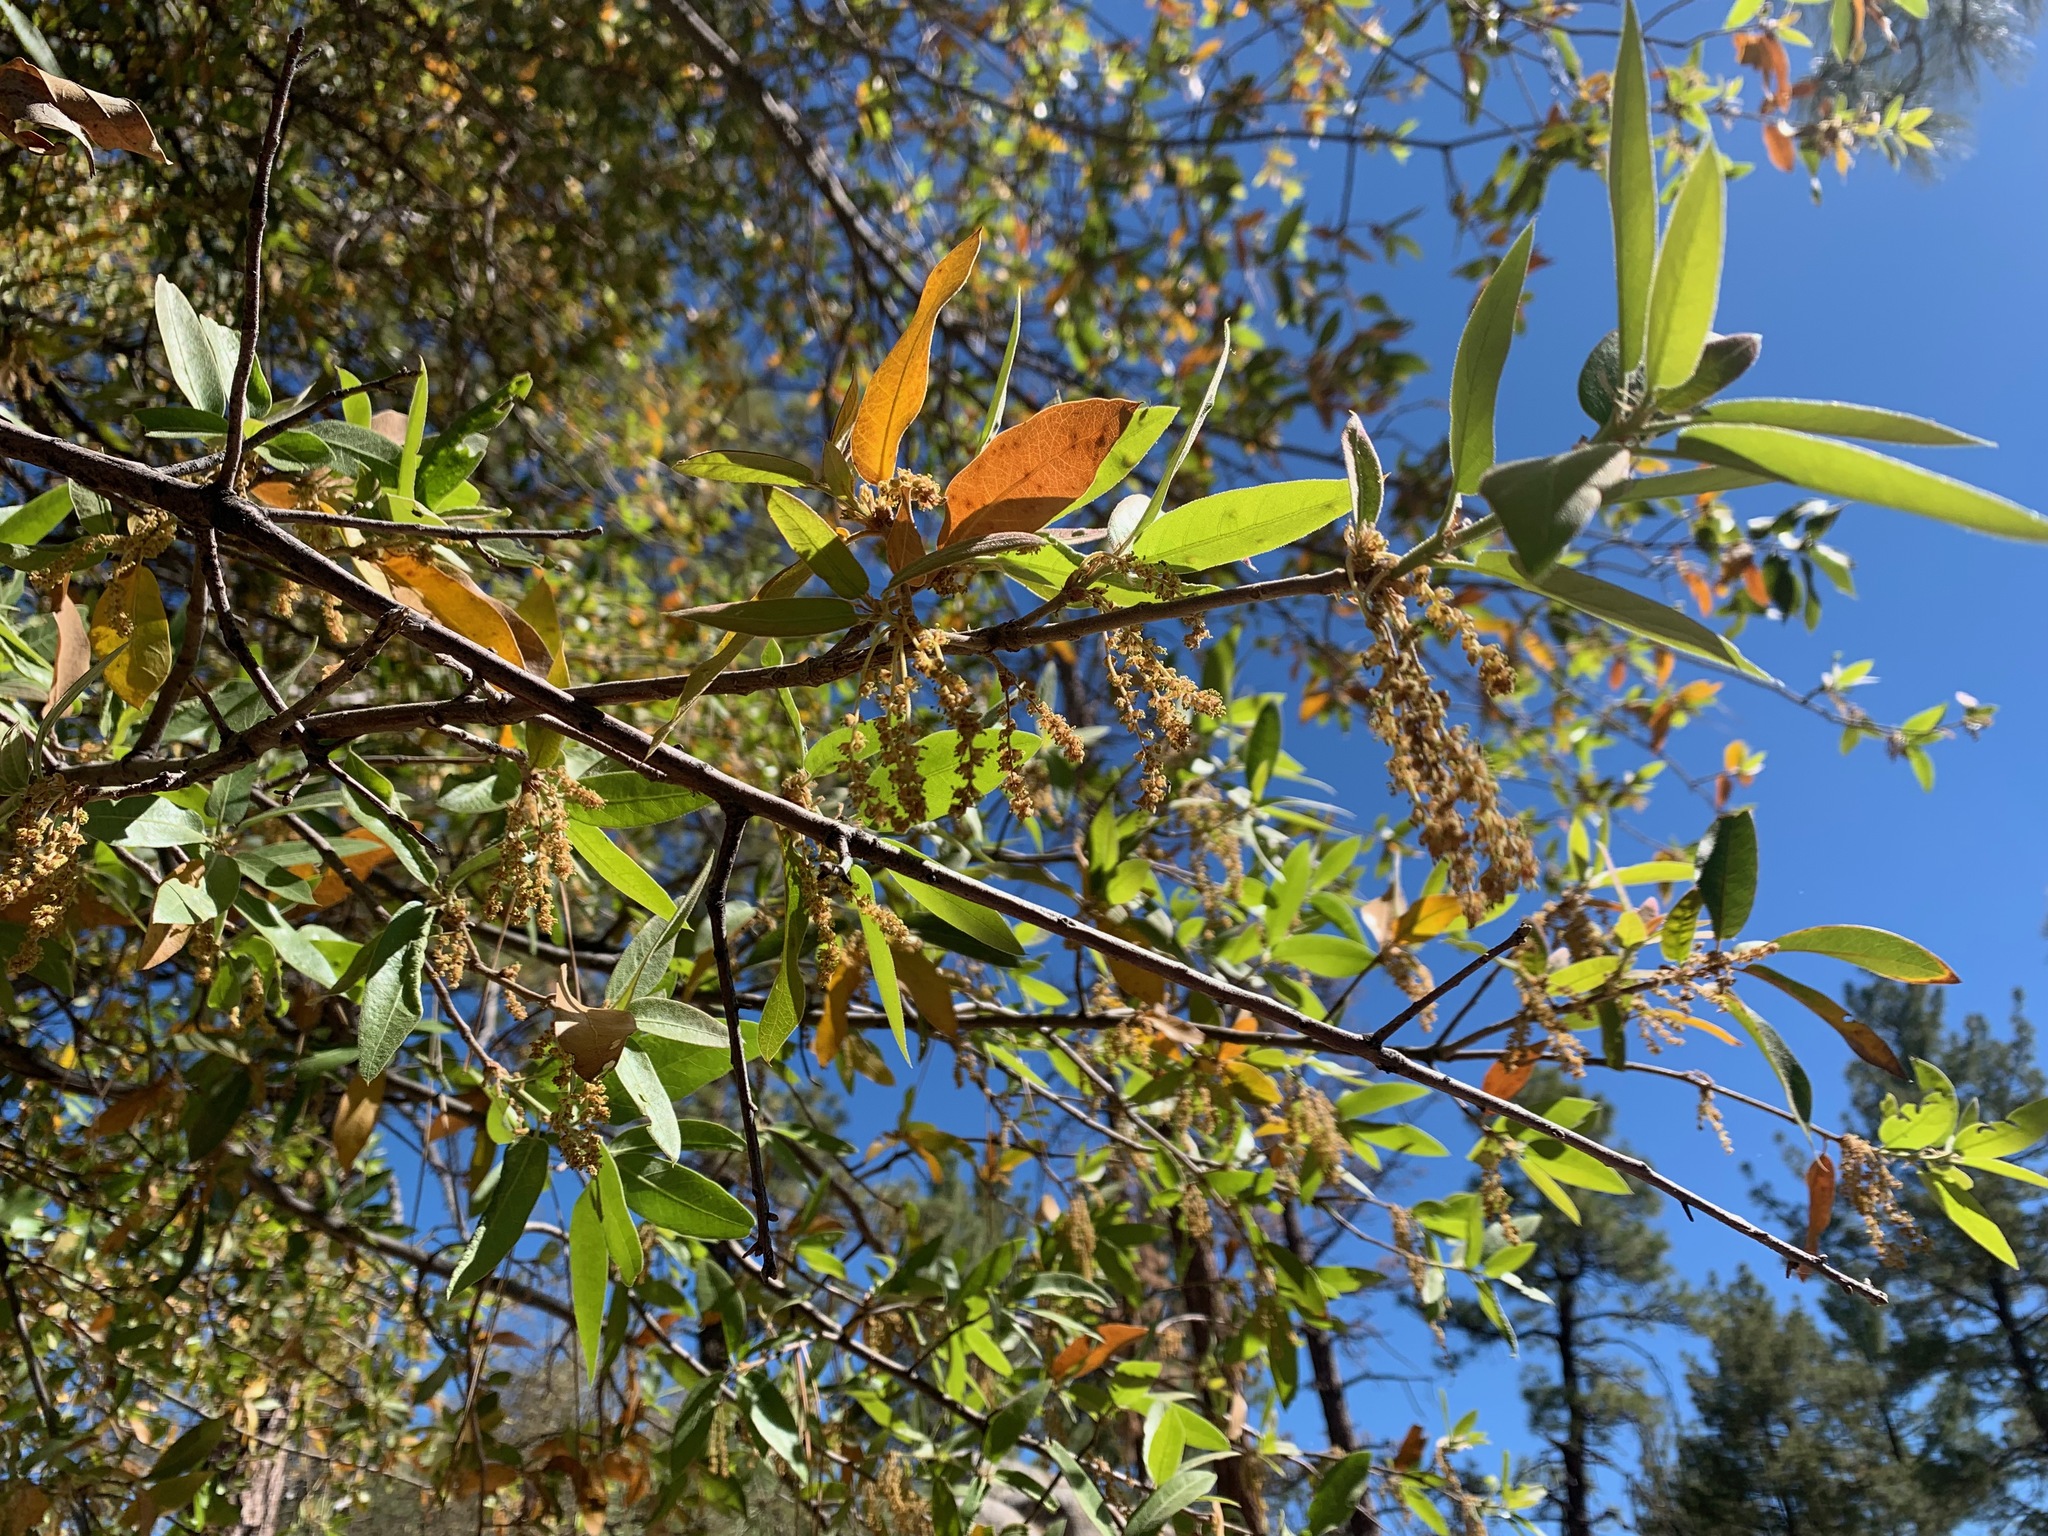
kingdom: Plantae
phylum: Tracheophyta
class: Magnoliopsida
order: Fagales
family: Fagaceae
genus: Quercus
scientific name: Quercus peninsularis
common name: Pacific emory oak
